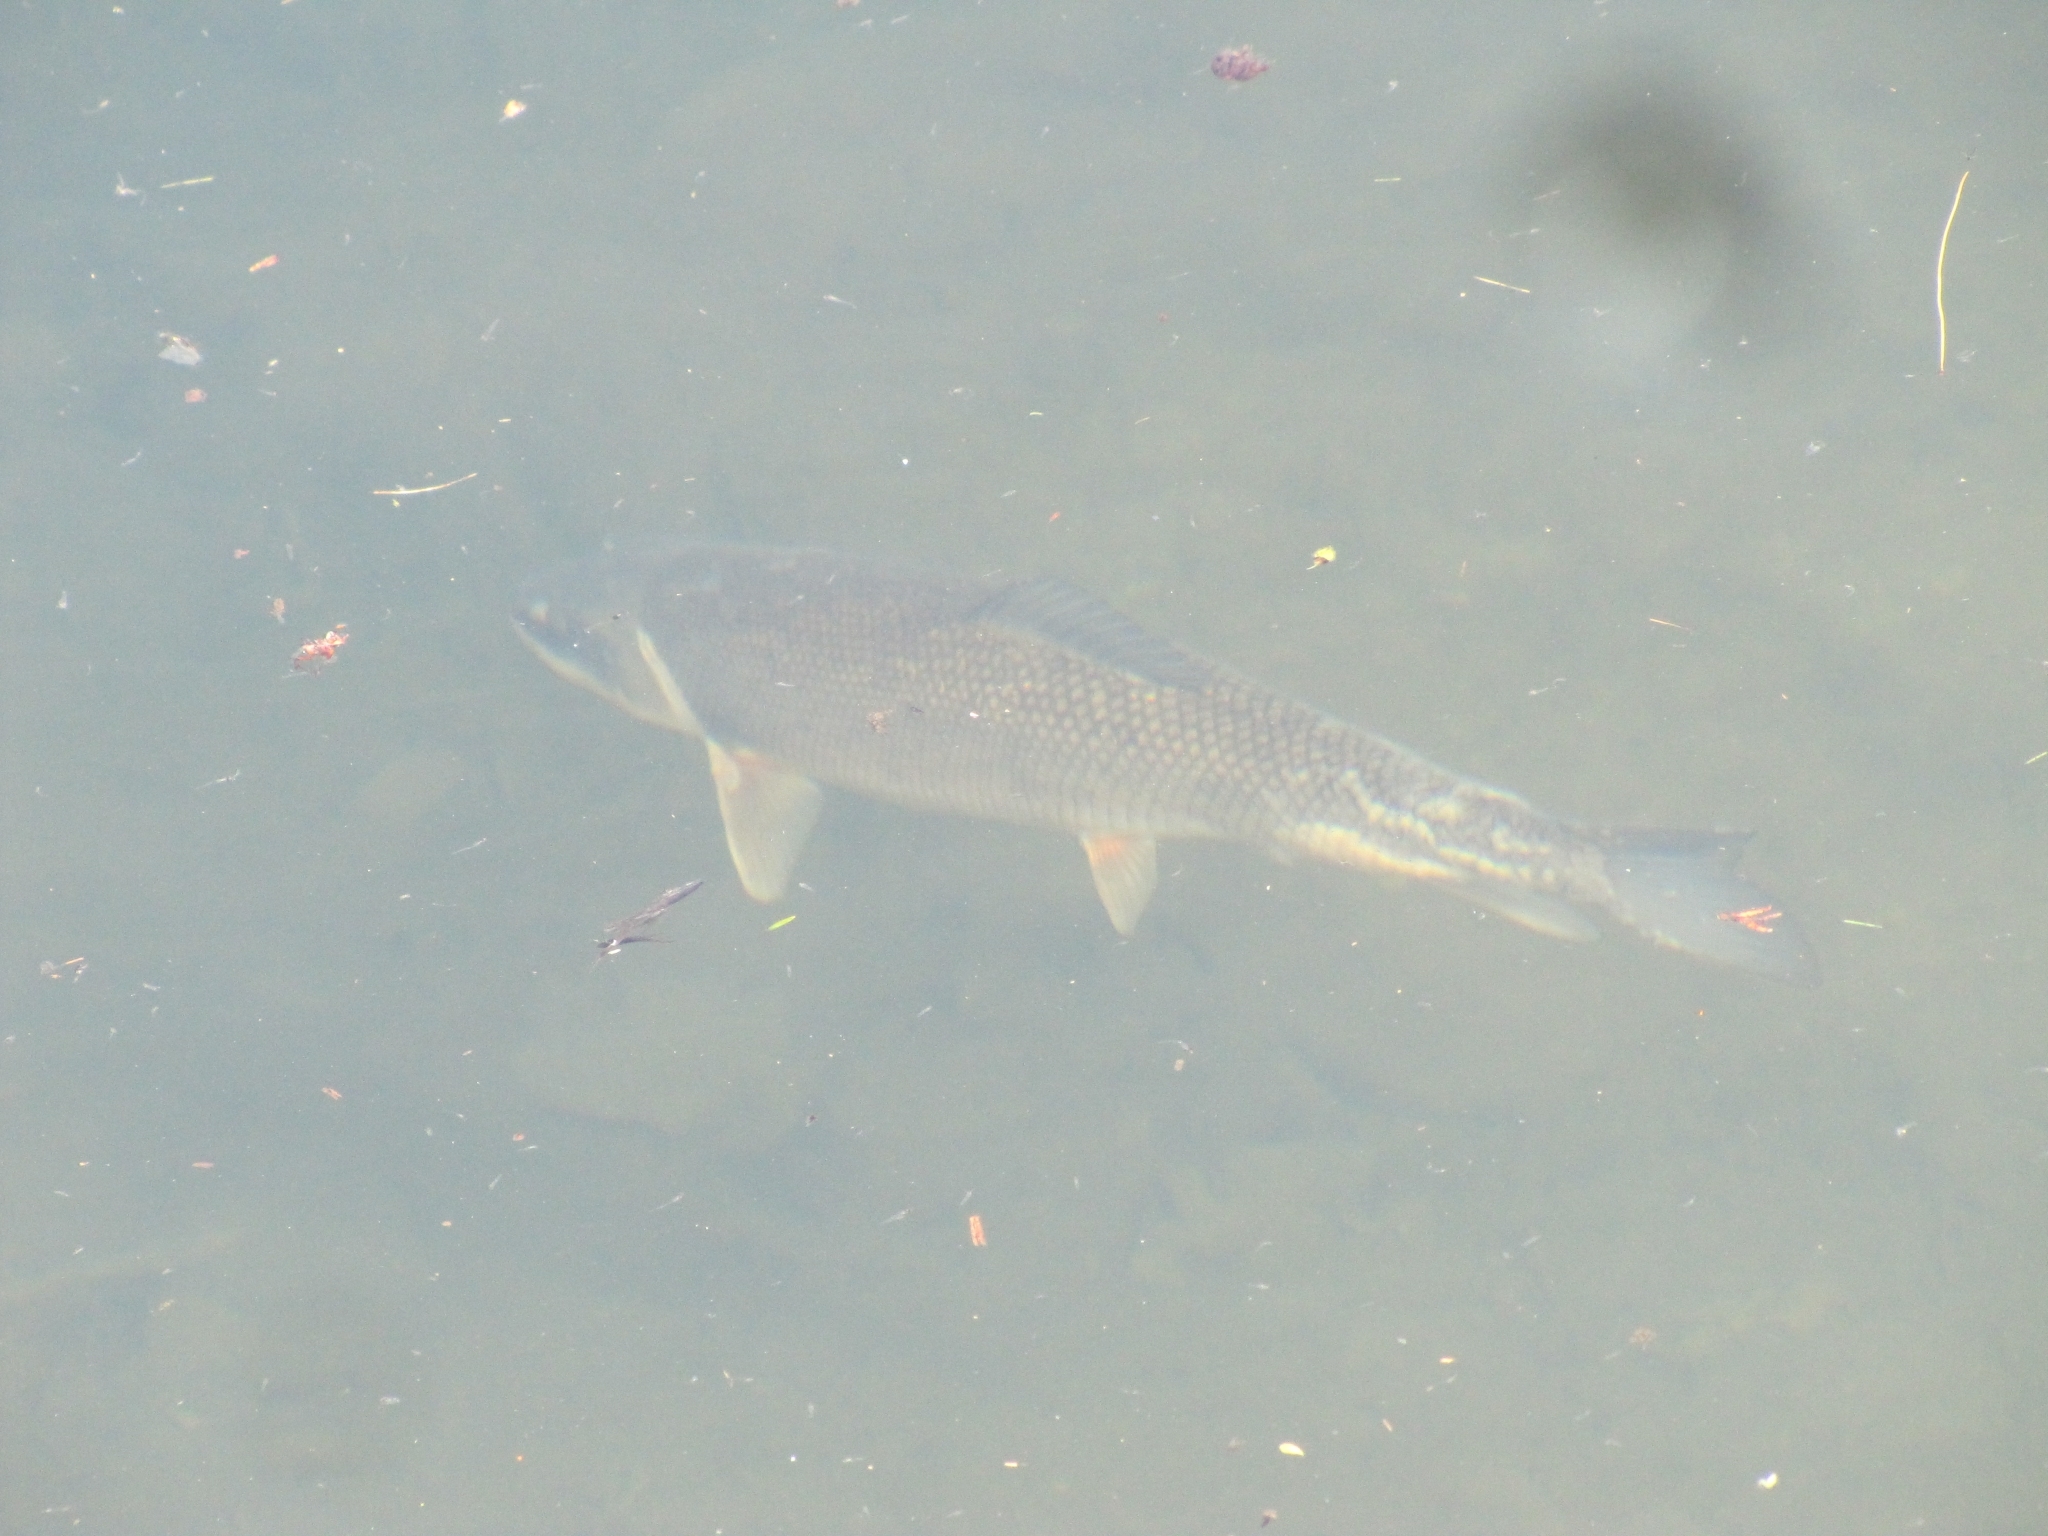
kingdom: Animalia
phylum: Chordata
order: Cypriniformes
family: Catostomidae
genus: Catostomus
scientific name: Catostomus commersonii
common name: White sucker
